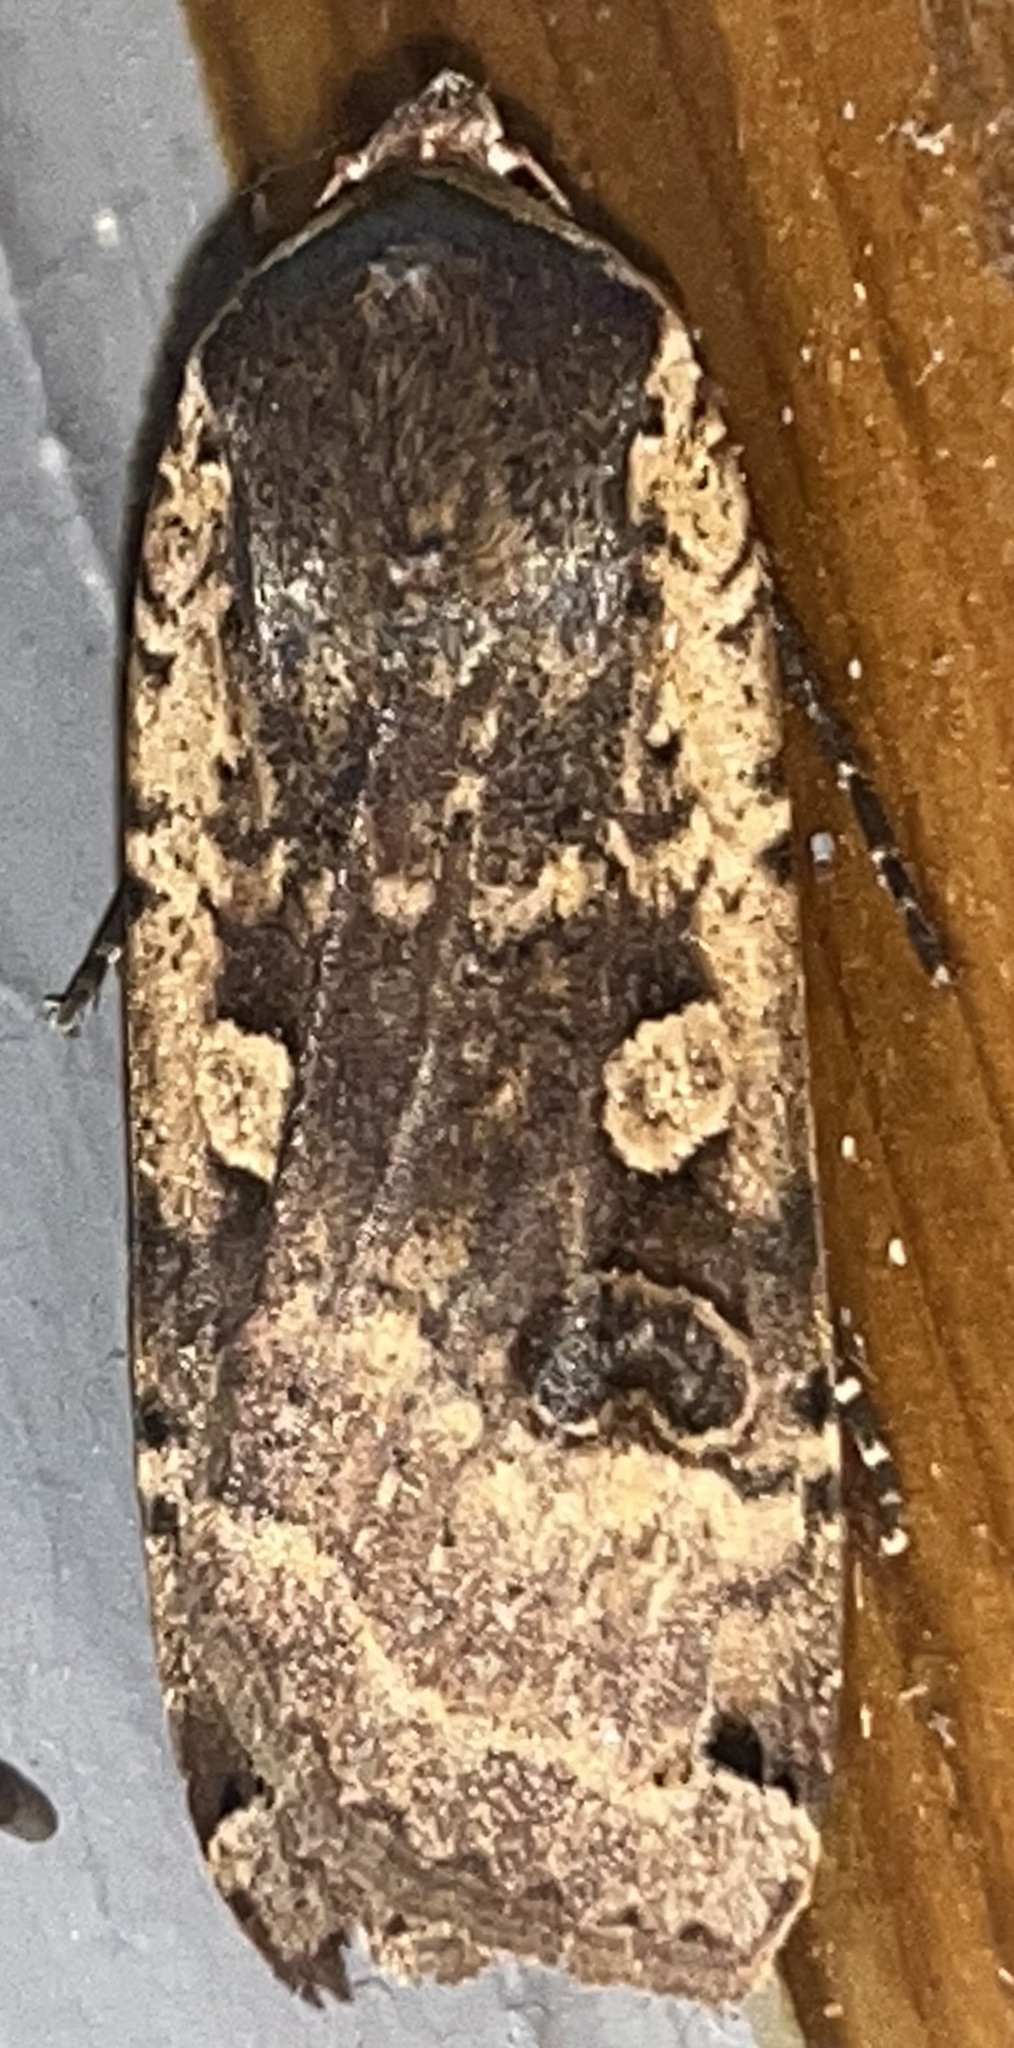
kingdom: Animalia
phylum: Arthropoda
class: Insecta
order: Lepidoptera
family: Noctuidae
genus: Noctua
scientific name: Noctua pronuba
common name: Large yellow underwing
